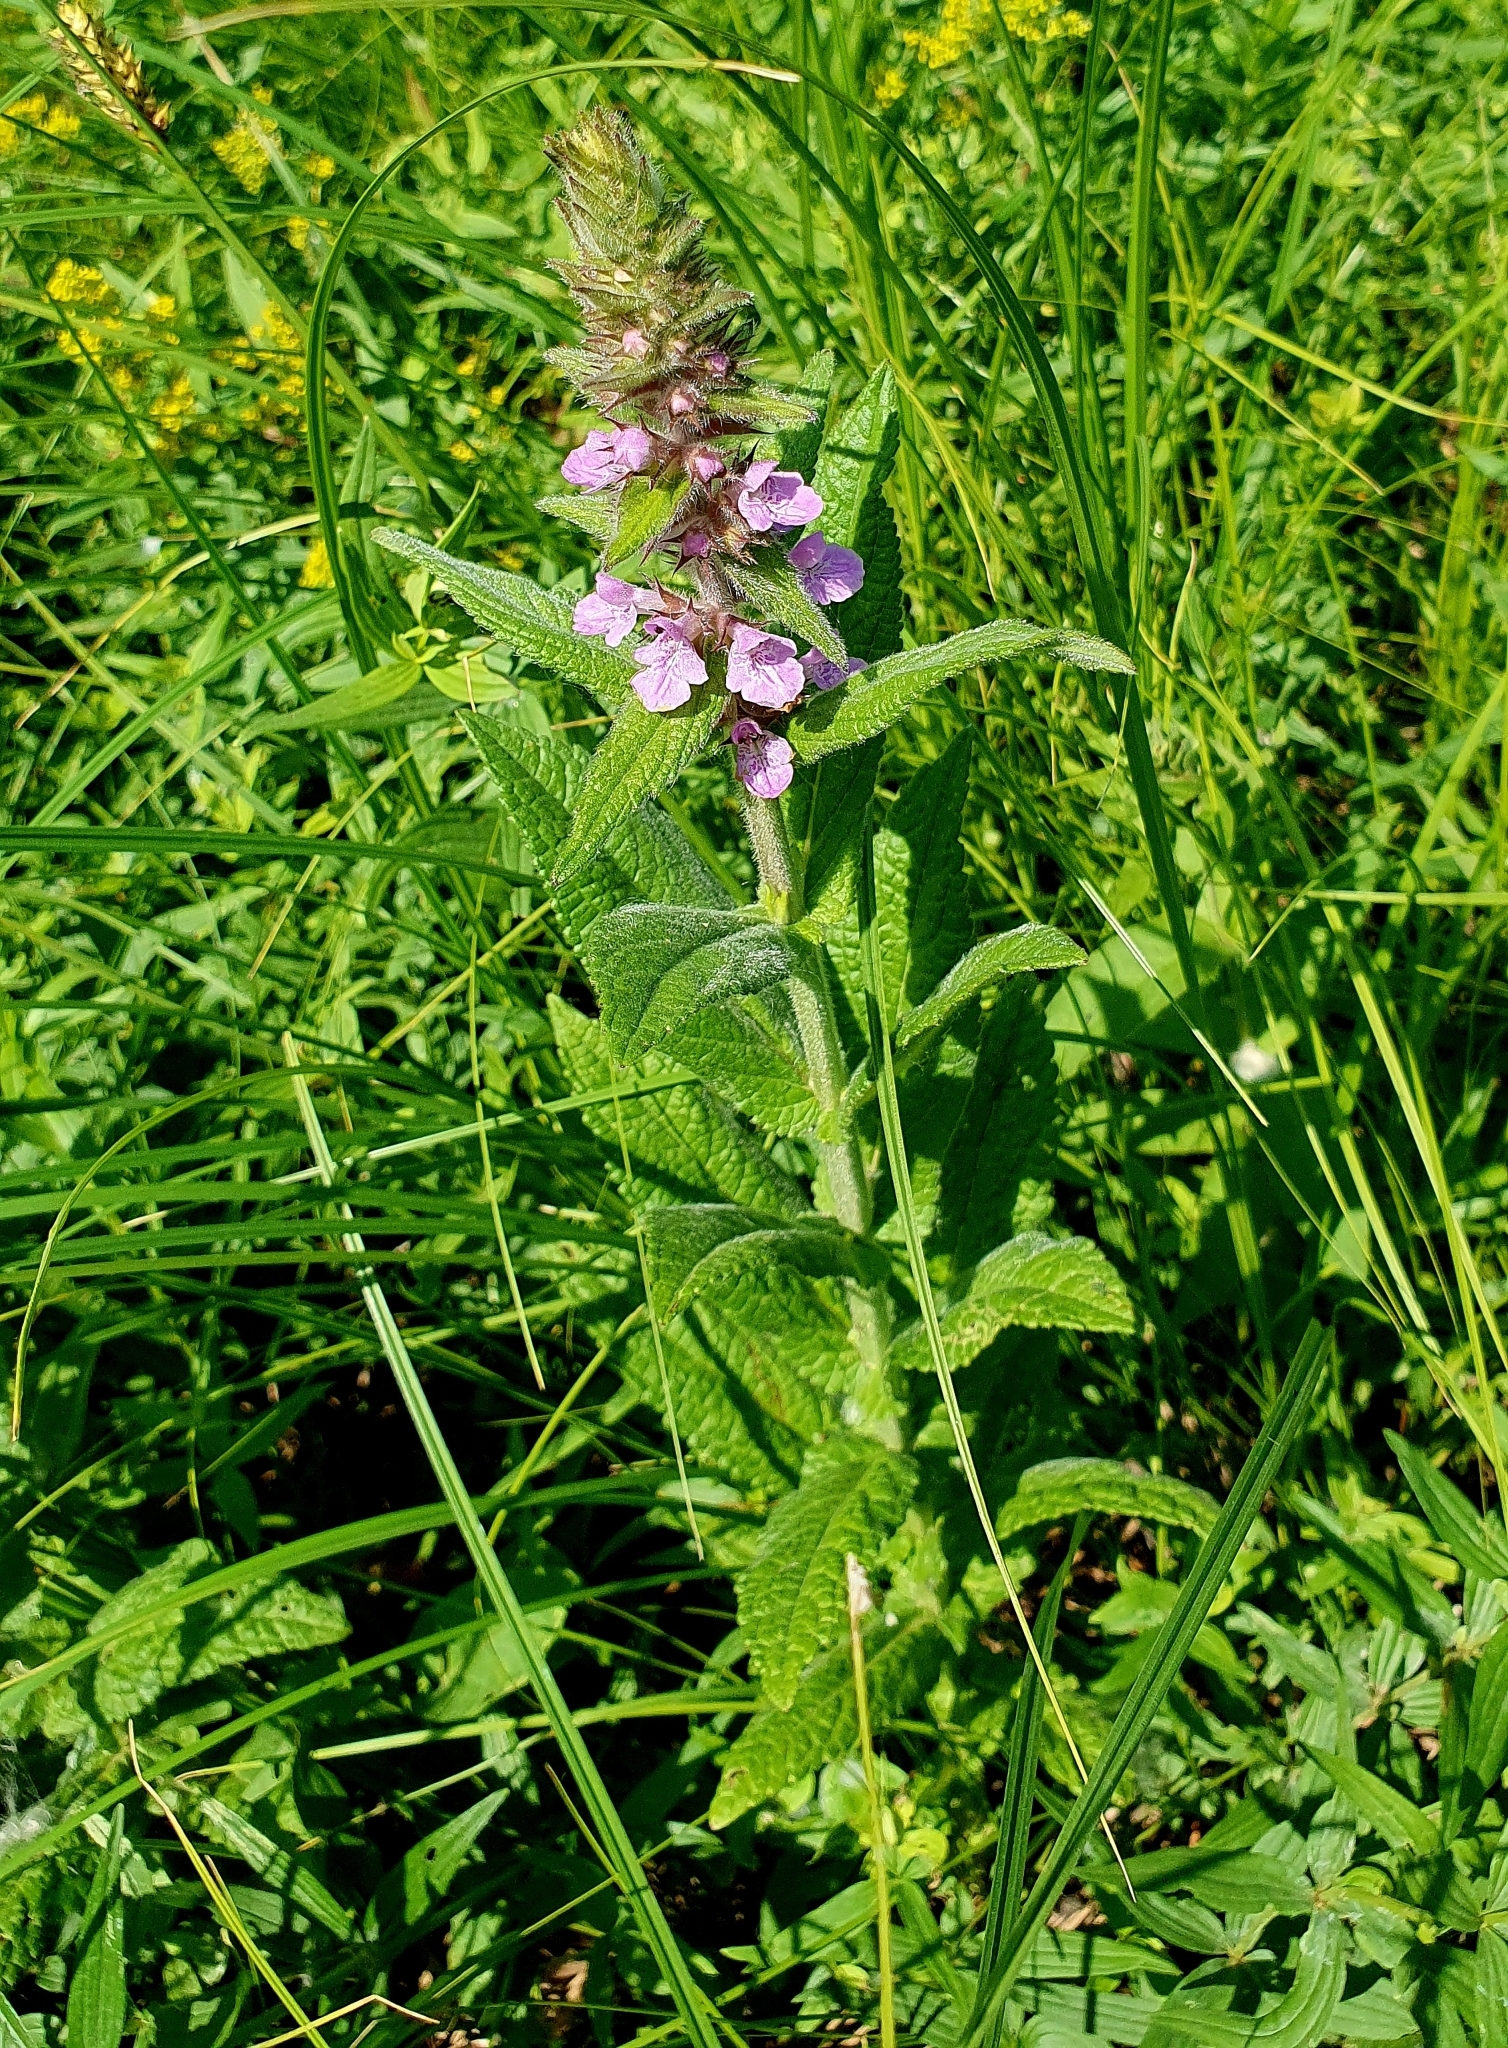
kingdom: Plantae
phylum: Tracheophyta
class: Magnoliopsida
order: Lamiales
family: Lamiaceae
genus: Stachys
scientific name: Stachys palustris
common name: Marsh woundwort
